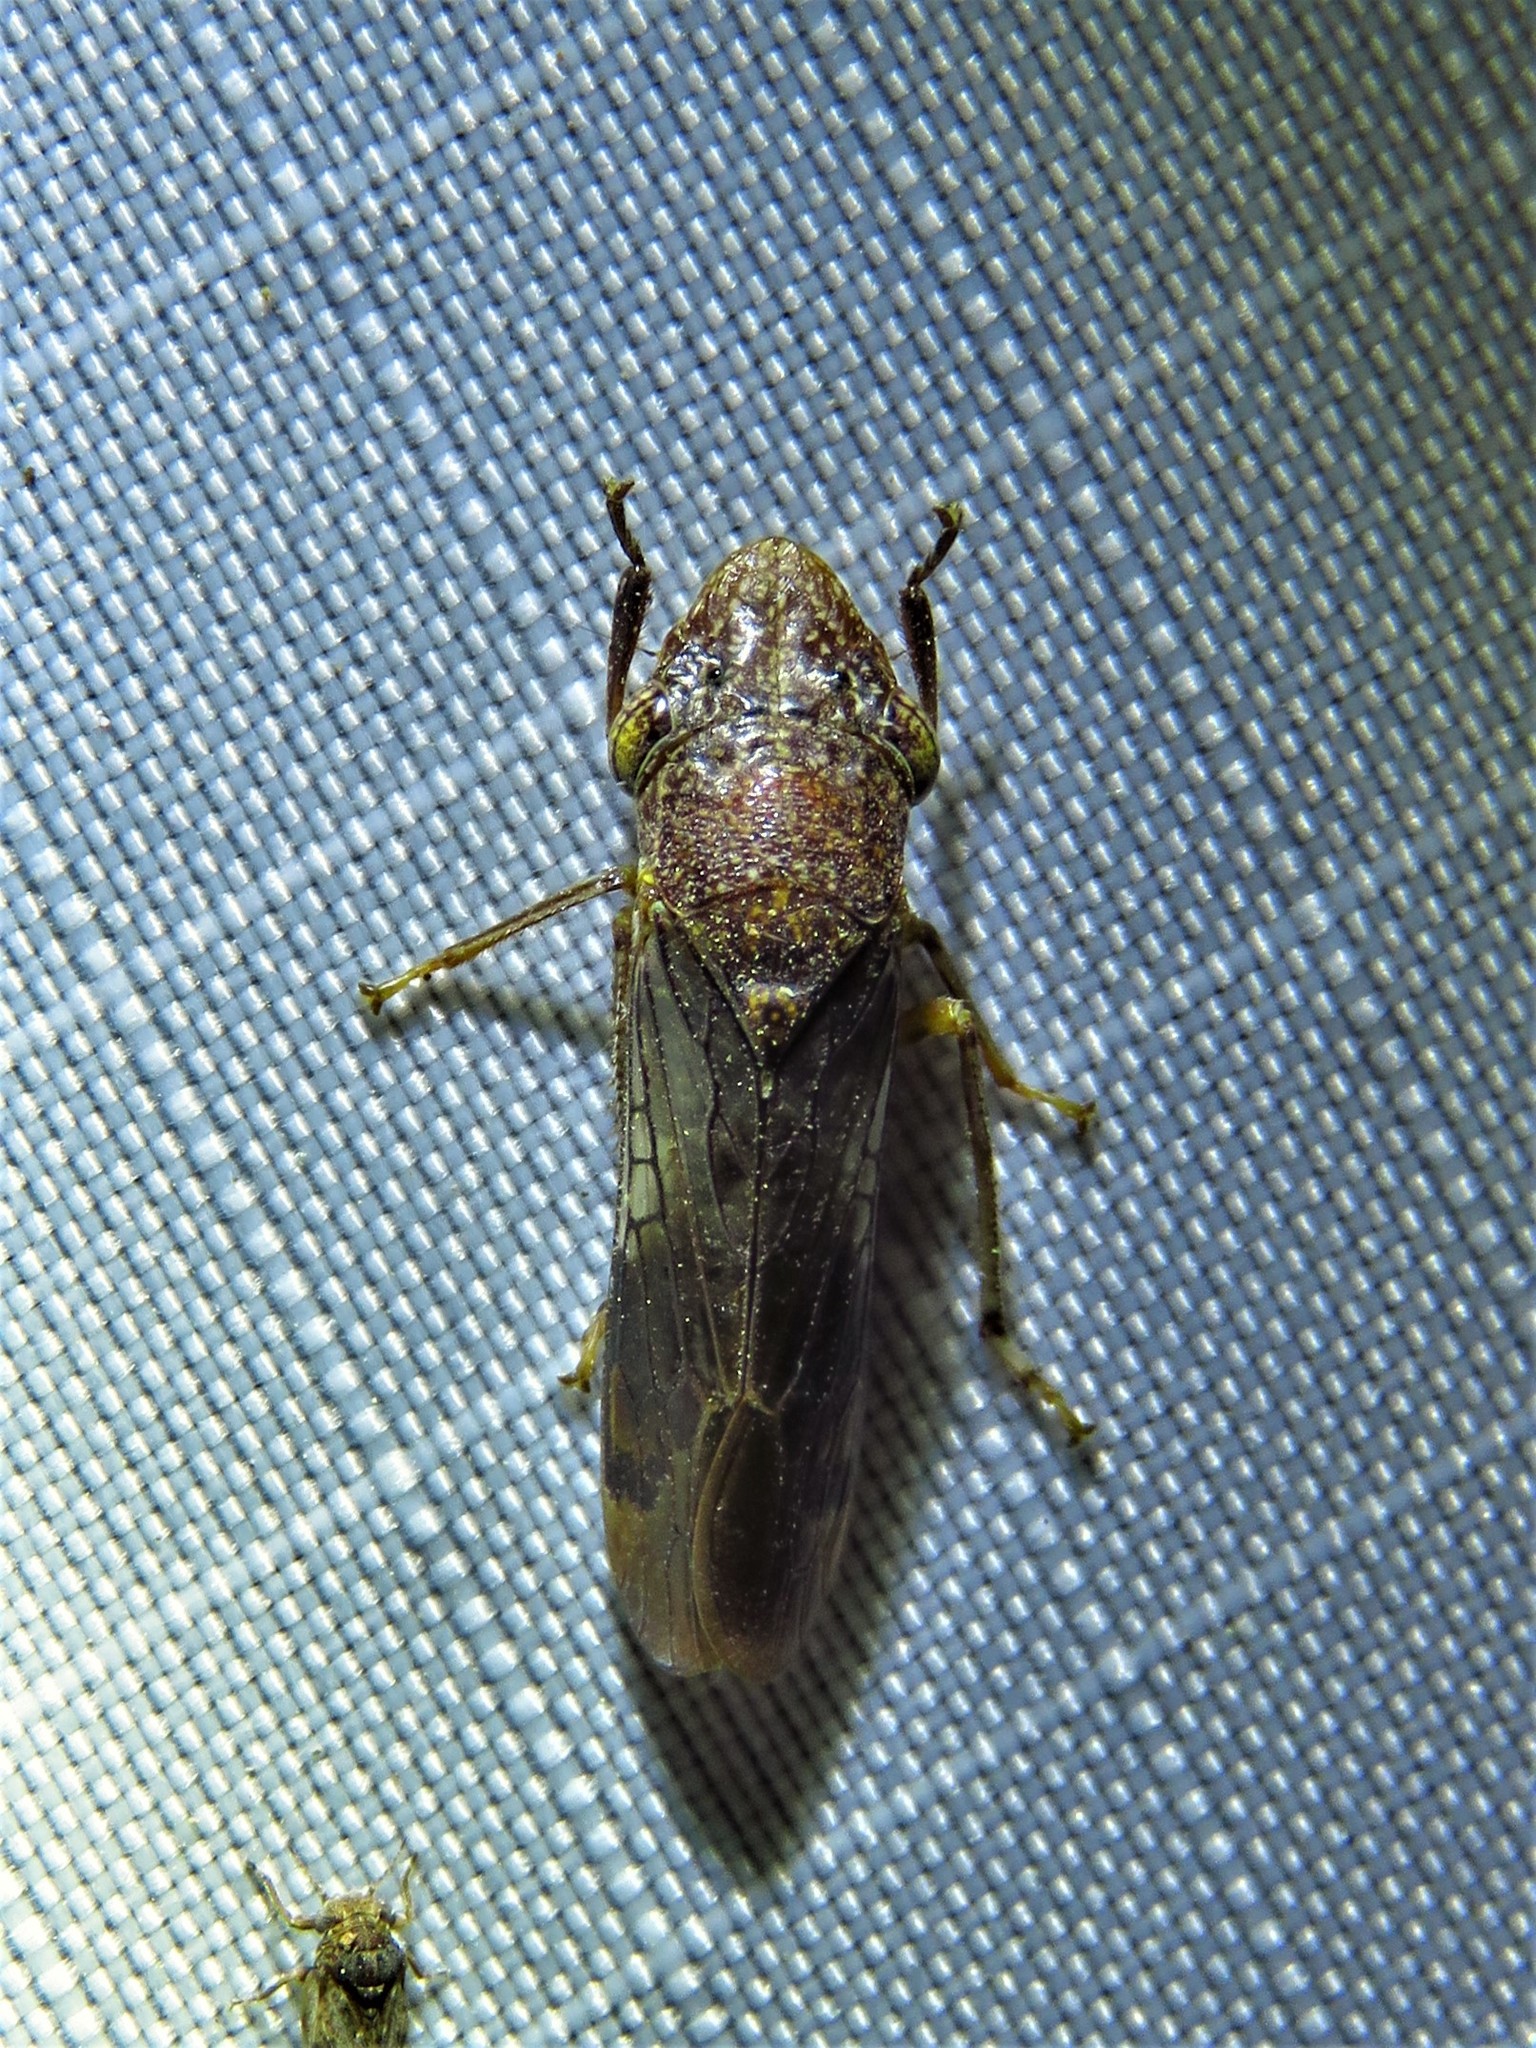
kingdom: Animalia
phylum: Arthropoda
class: Insecta
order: Hemiptera
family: Cicadellidae
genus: Homalodisca
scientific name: Homalodisca vitripennis
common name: Glassy-winged sharpshooter
